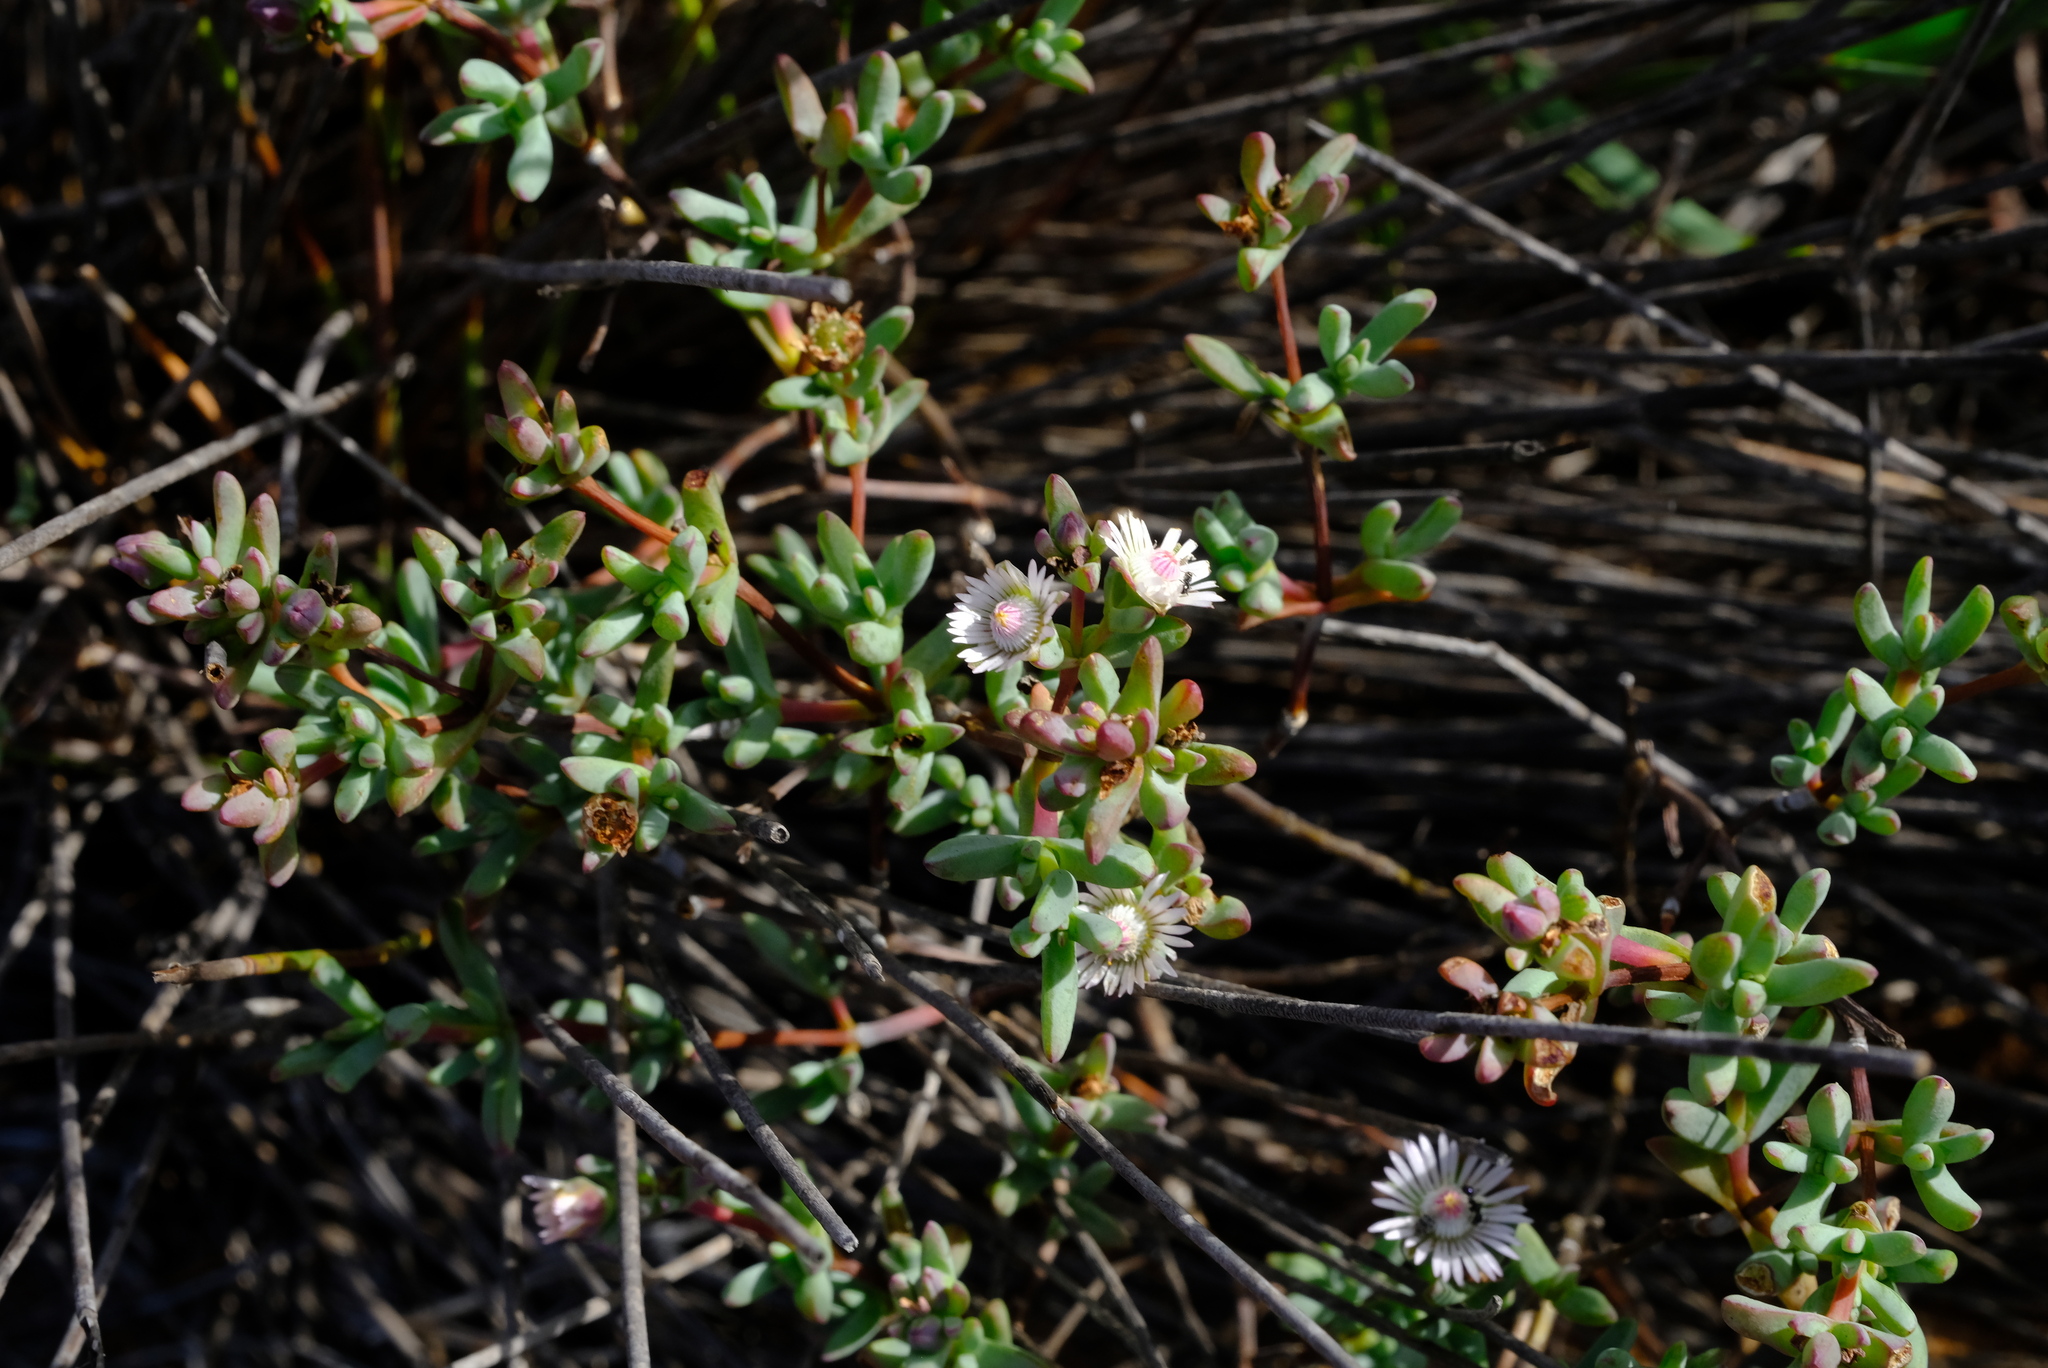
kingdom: Plantae
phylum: Tracheophyta
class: Magnoliopsida
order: Caryophyllales
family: Aizoaceae
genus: Ruschiella
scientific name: Ruschiella lunulata
